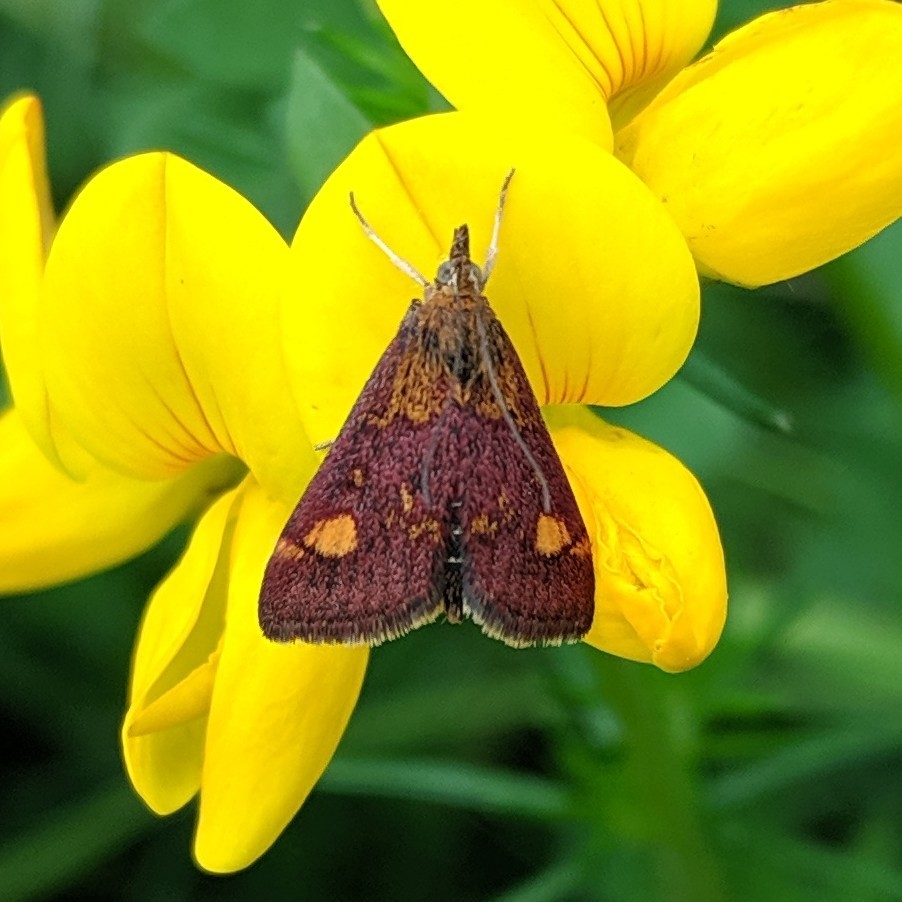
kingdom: Animalia
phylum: Arthropoda
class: Insecta
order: Lepidoptera
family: Crambidae
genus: Pyrausta
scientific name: Pyrausta aurata
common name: Small purple & gold
